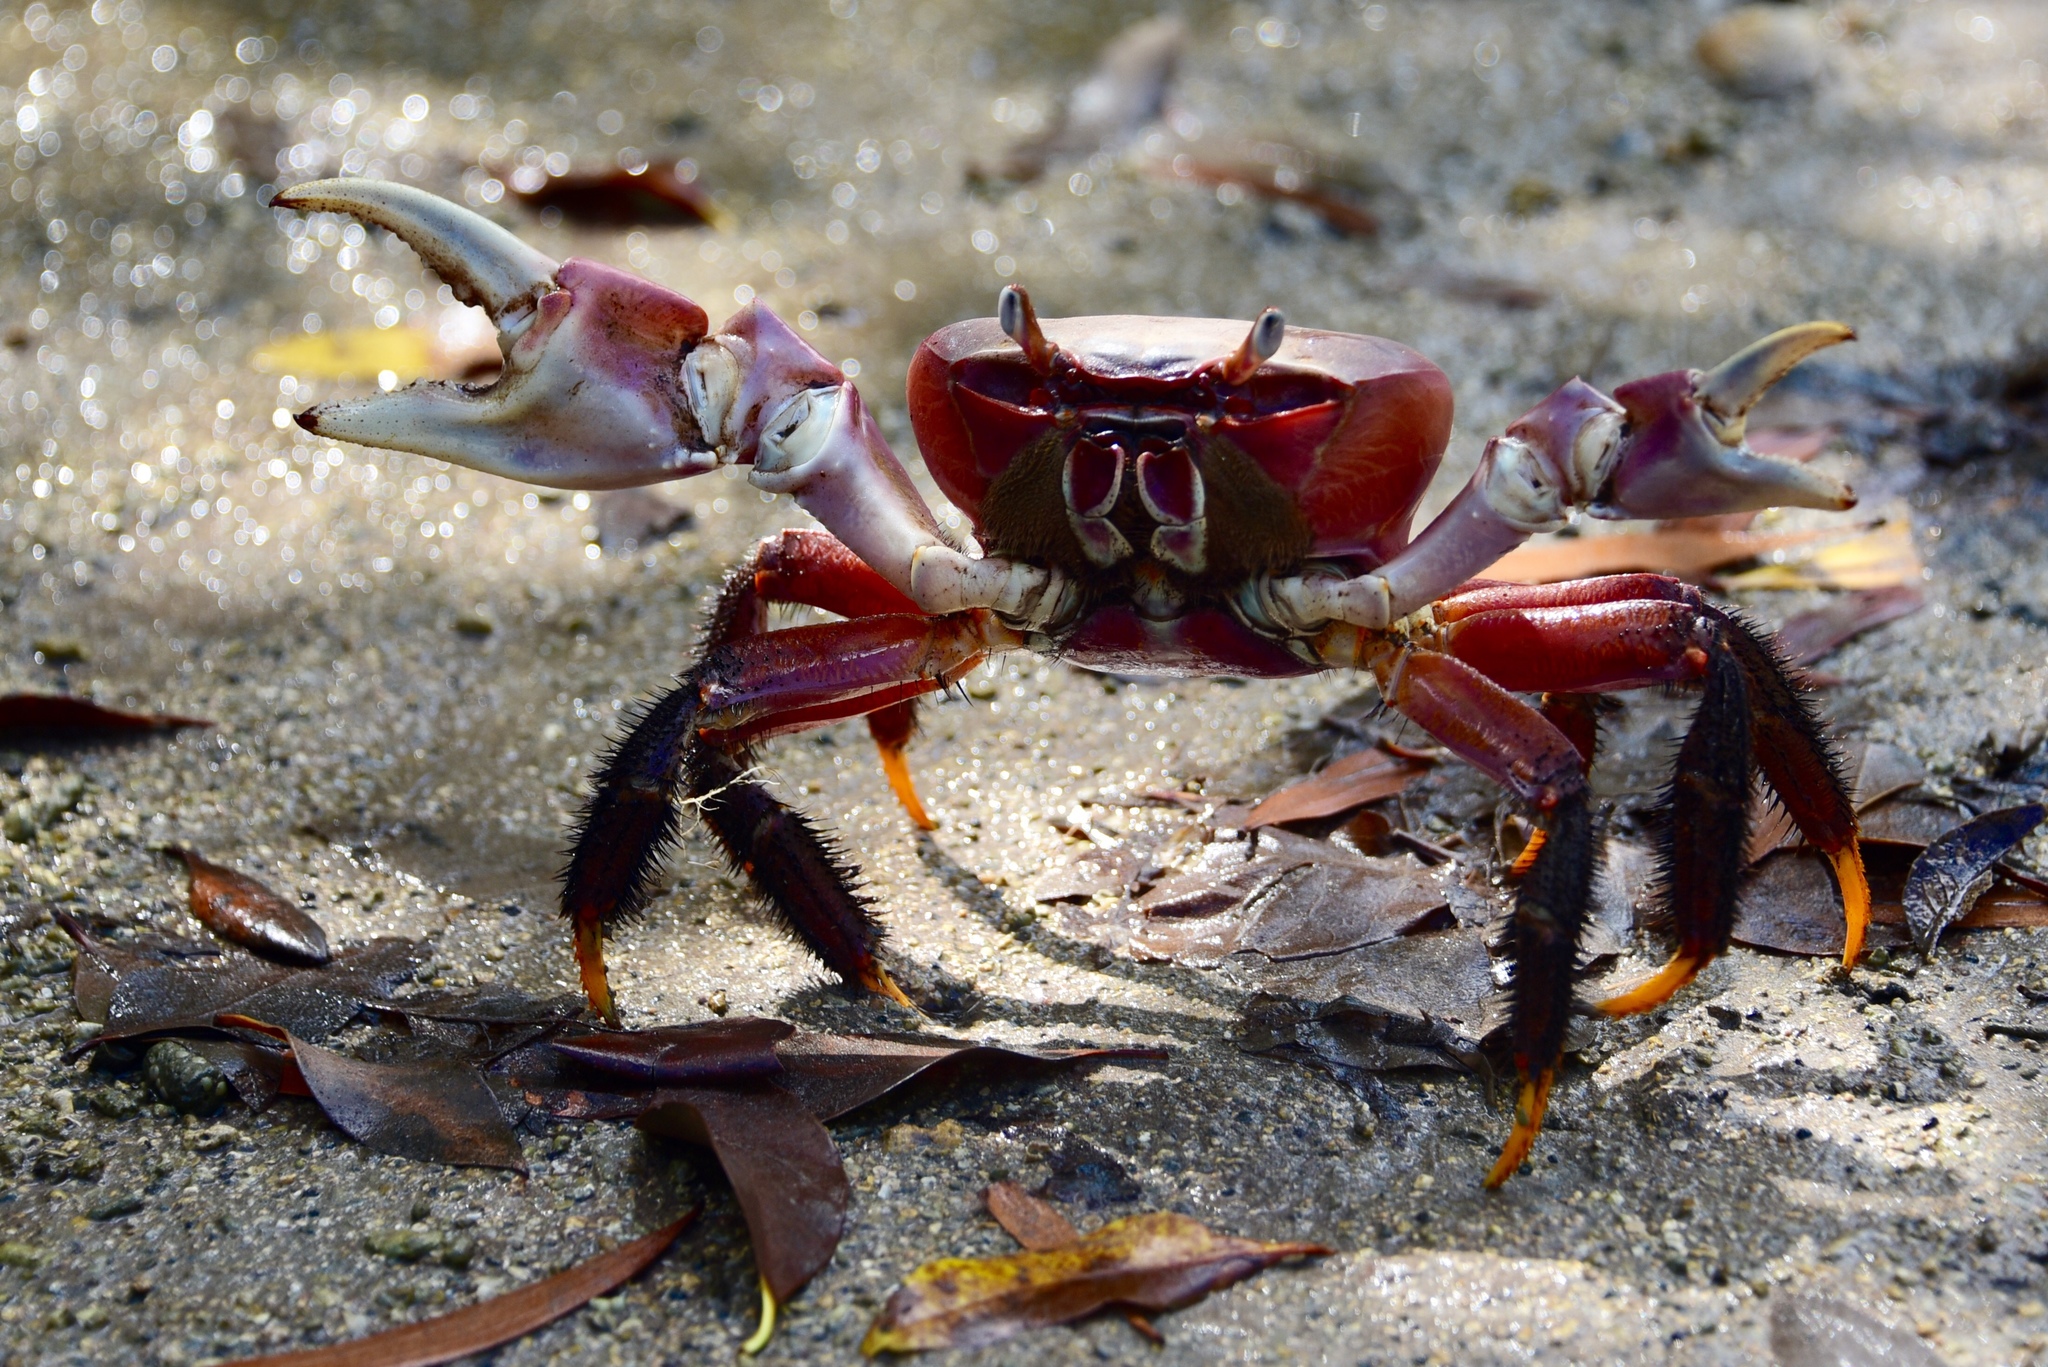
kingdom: Animalia
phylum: Arthropoda
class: Malacostraca
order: Decapoda
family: Gecarcinidae
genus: Cardisoma
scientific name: Cardisoma carnifex
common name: Brown land crab
